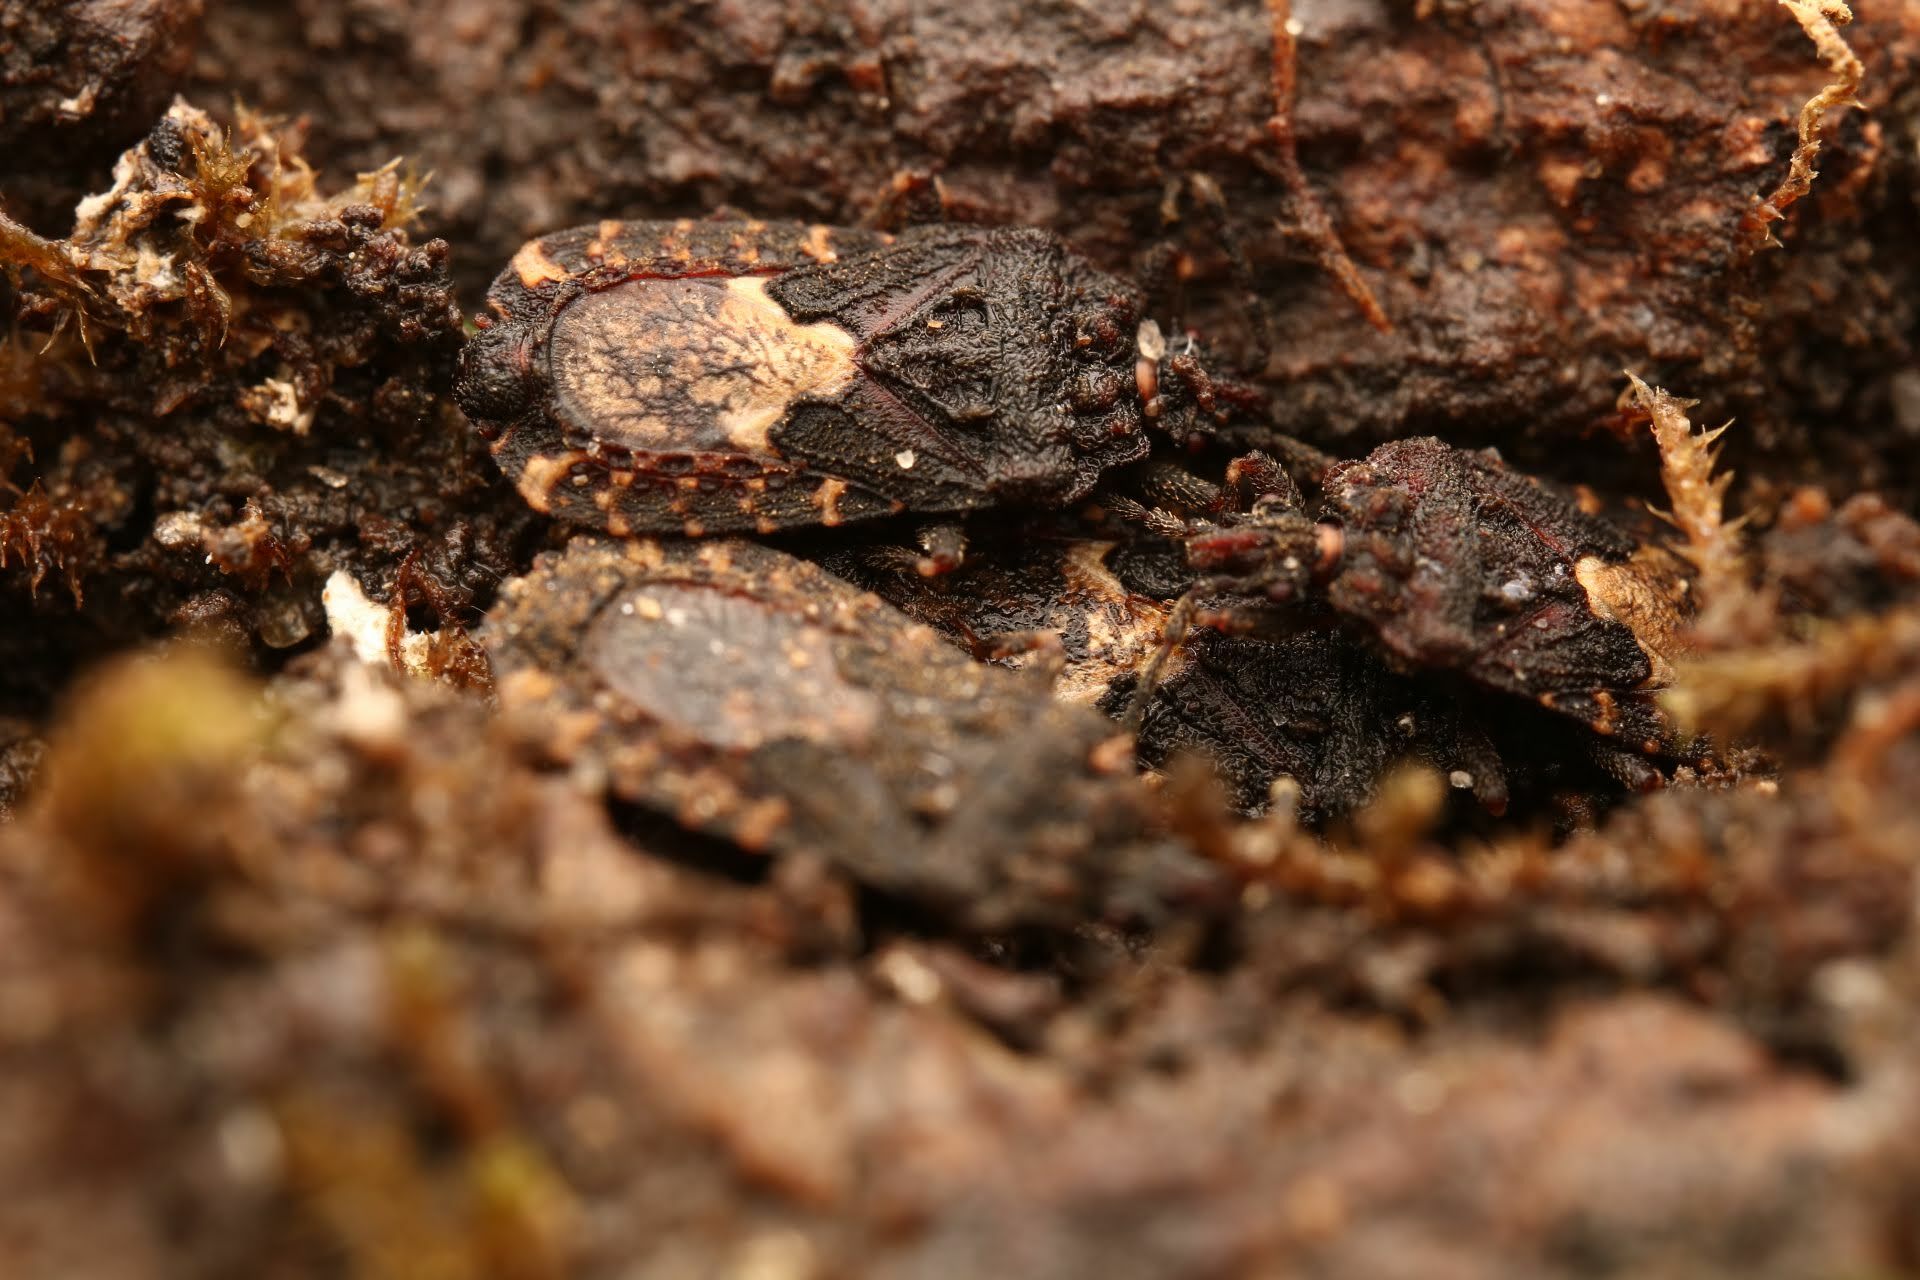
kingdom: Animalia
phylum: Arthropoda
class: Insecta
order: Hemiptera
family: Aradidae
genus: Mezira
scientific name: Mezira
